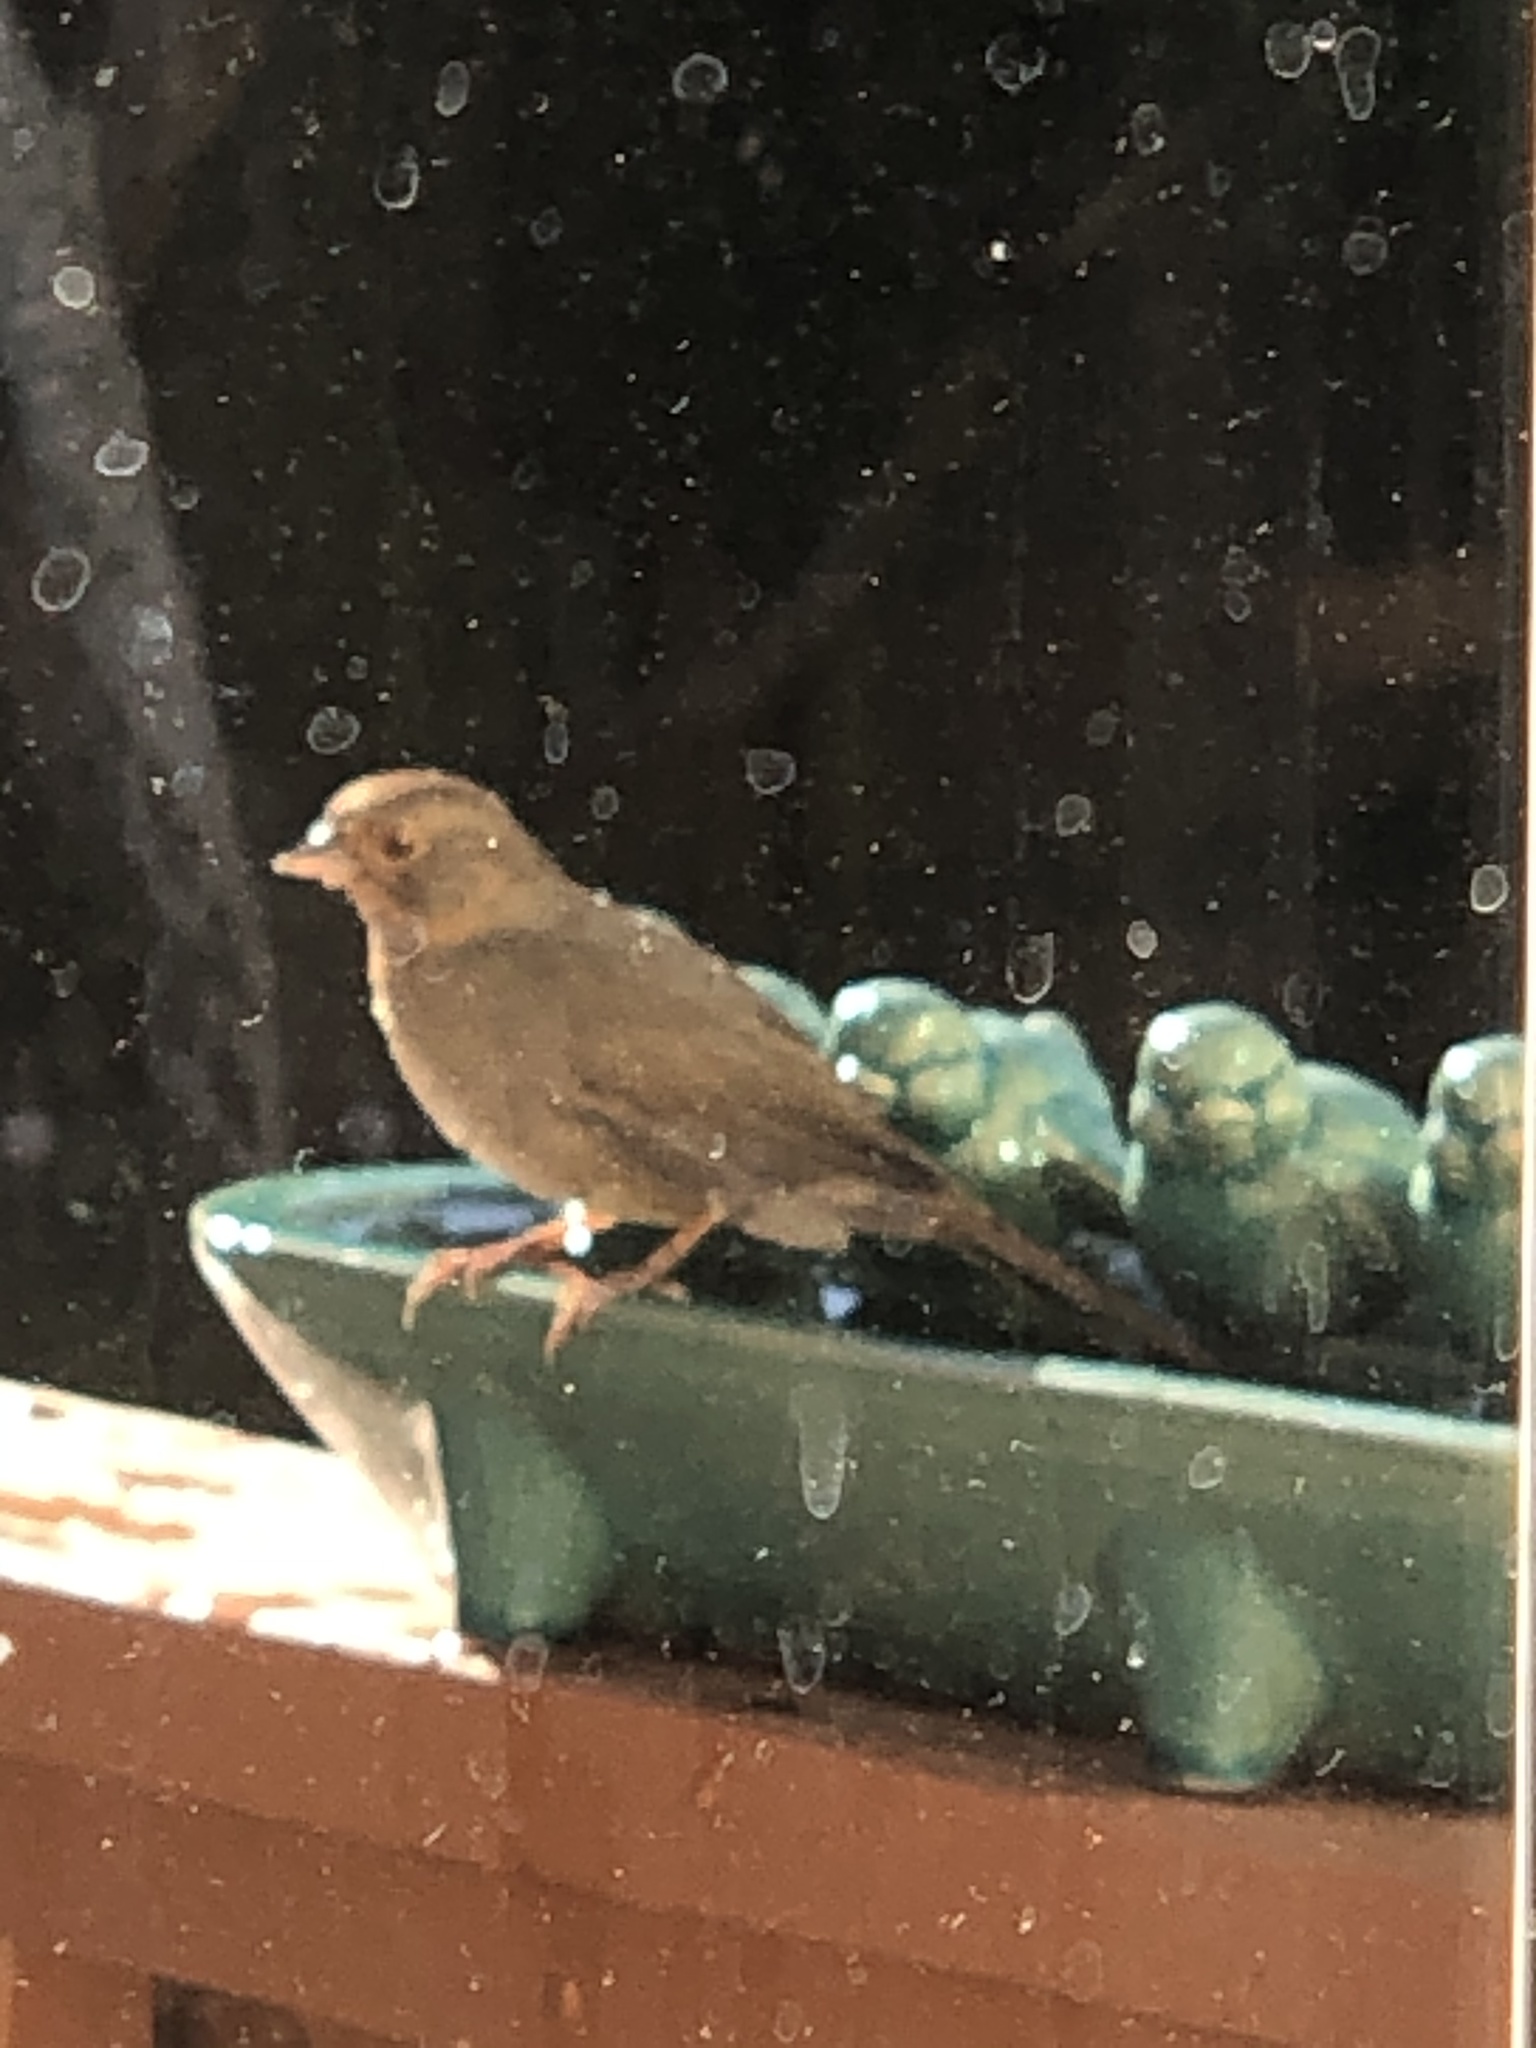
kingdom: Animalia
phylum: Chordata
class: Aves
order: Passeriformes
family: Passerellidae
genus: Melozone
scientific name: Melozone crissalis
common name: California towhee
